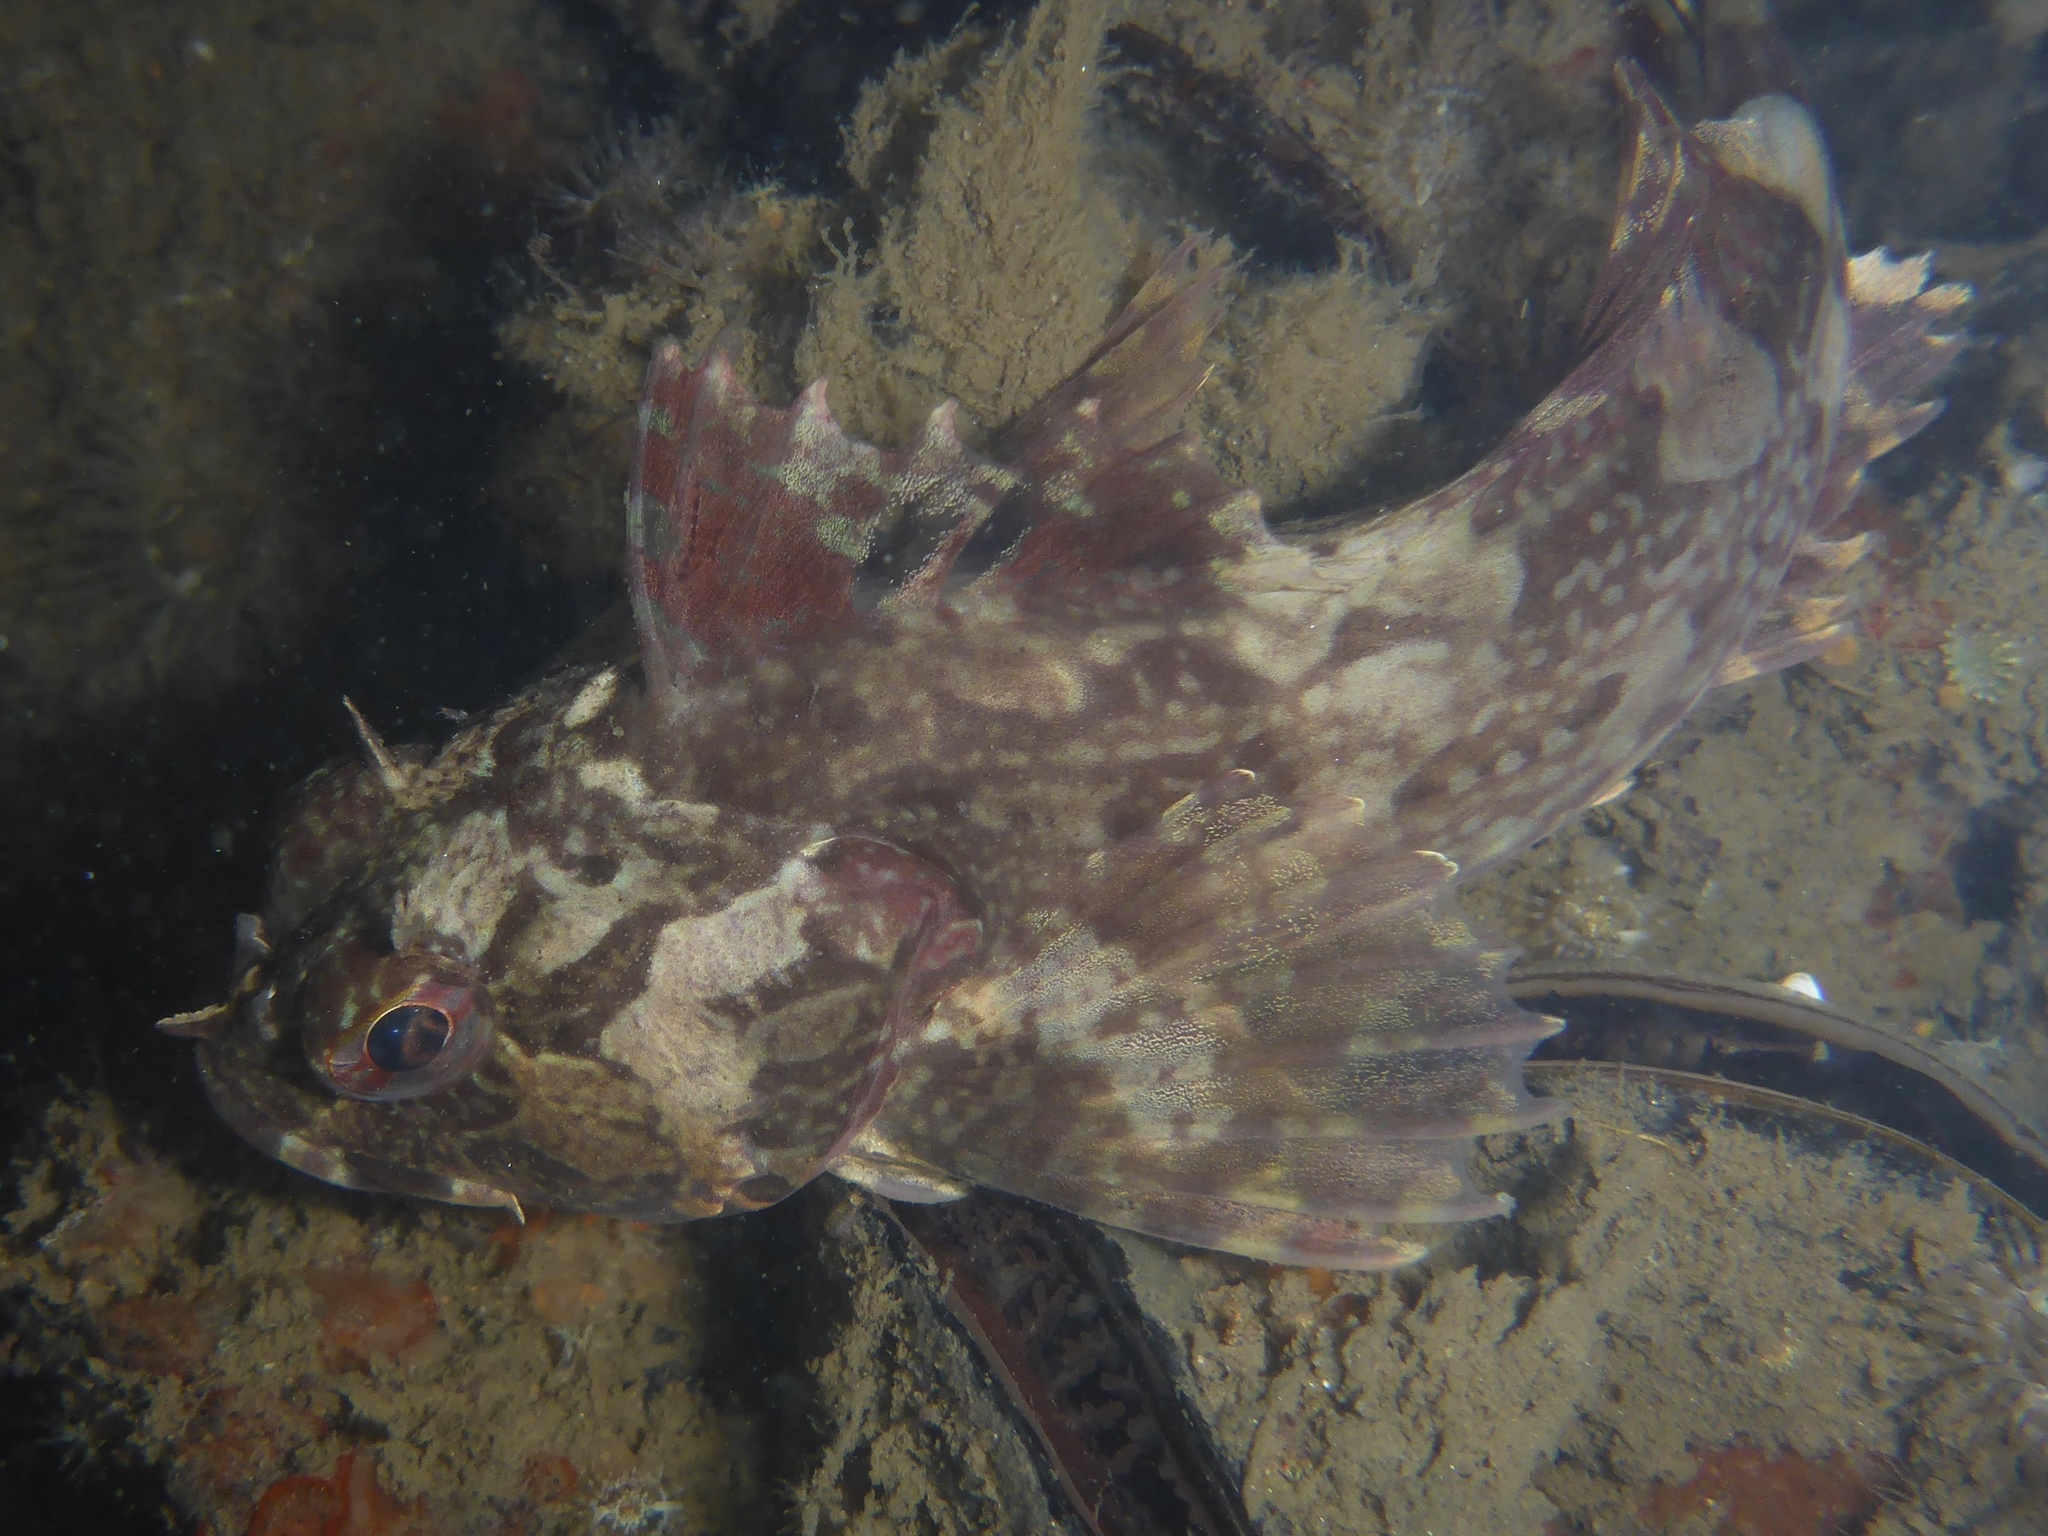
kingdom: Animalia
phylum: Chordata
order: Scorpaeniformes
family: Cottidae
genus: Scorpaenichthys
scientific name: Scorpaenichthys marmoratus
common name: Cabezon
